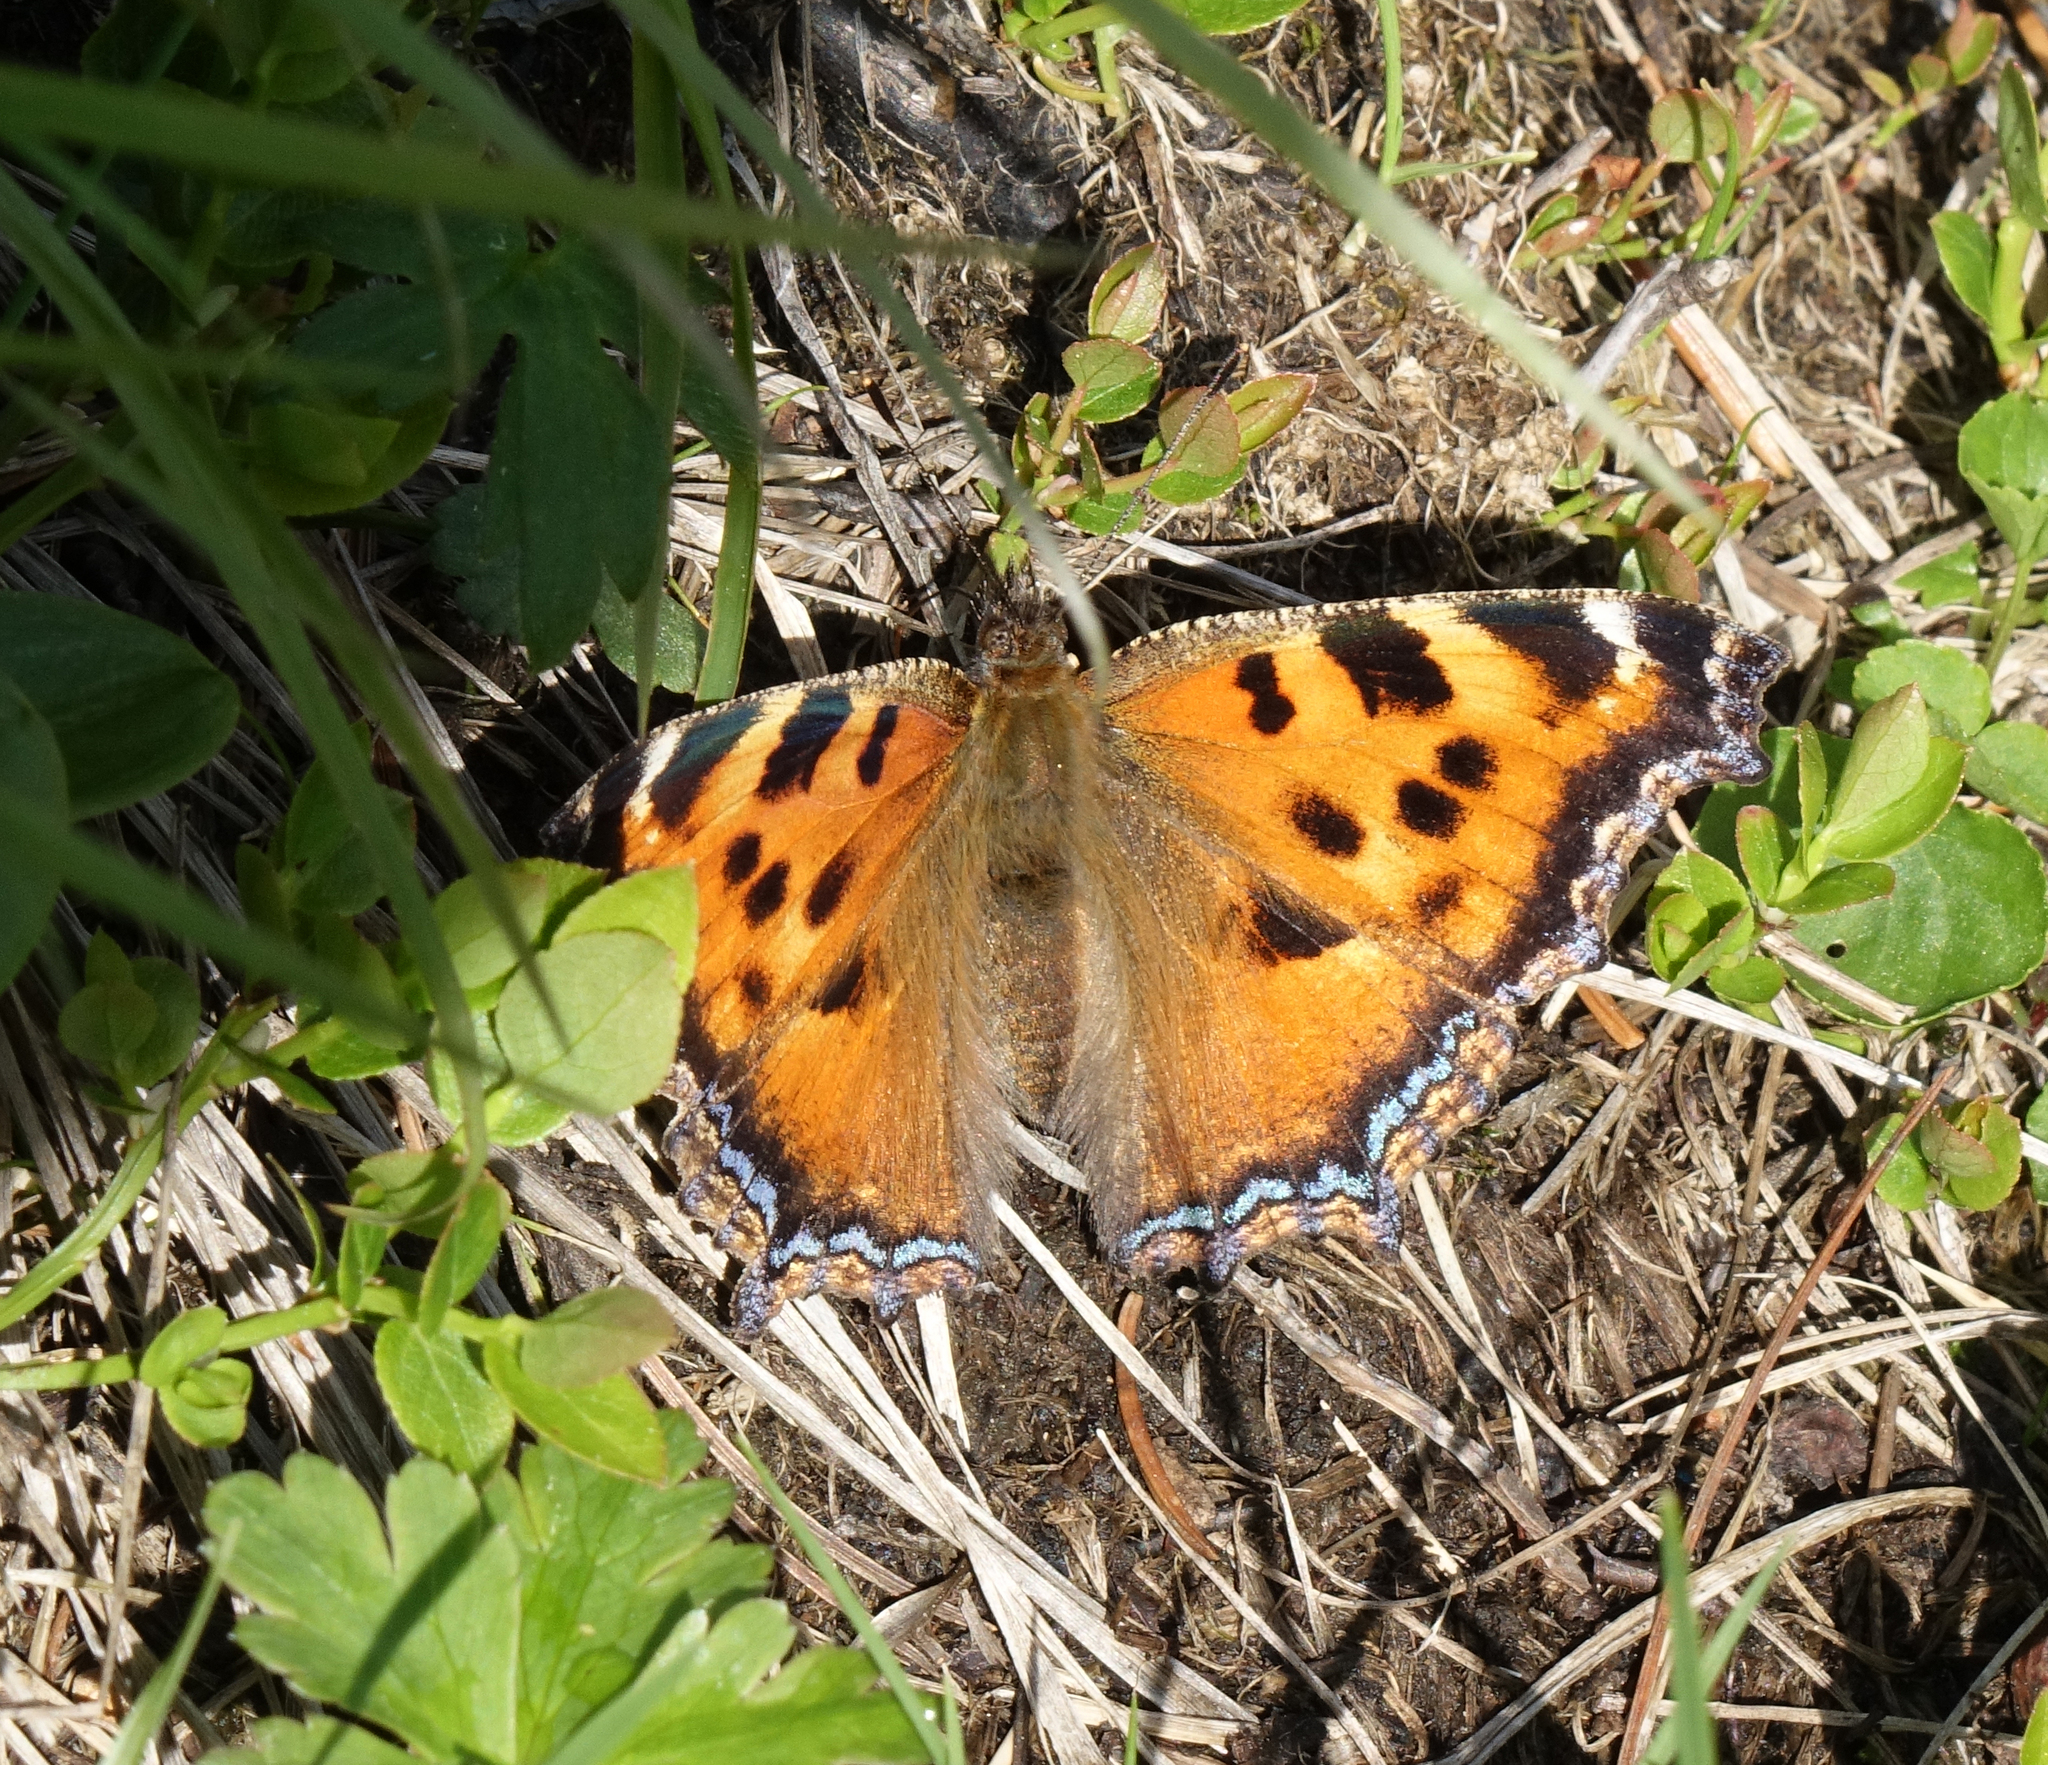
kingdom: Animalia
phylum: Arthropoda
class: Insecta
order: Lepidoptera
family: Nymphalidae
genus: Nymphalis
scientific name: Nymphalis xanthomelas
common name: Scarce tortoiseshell
